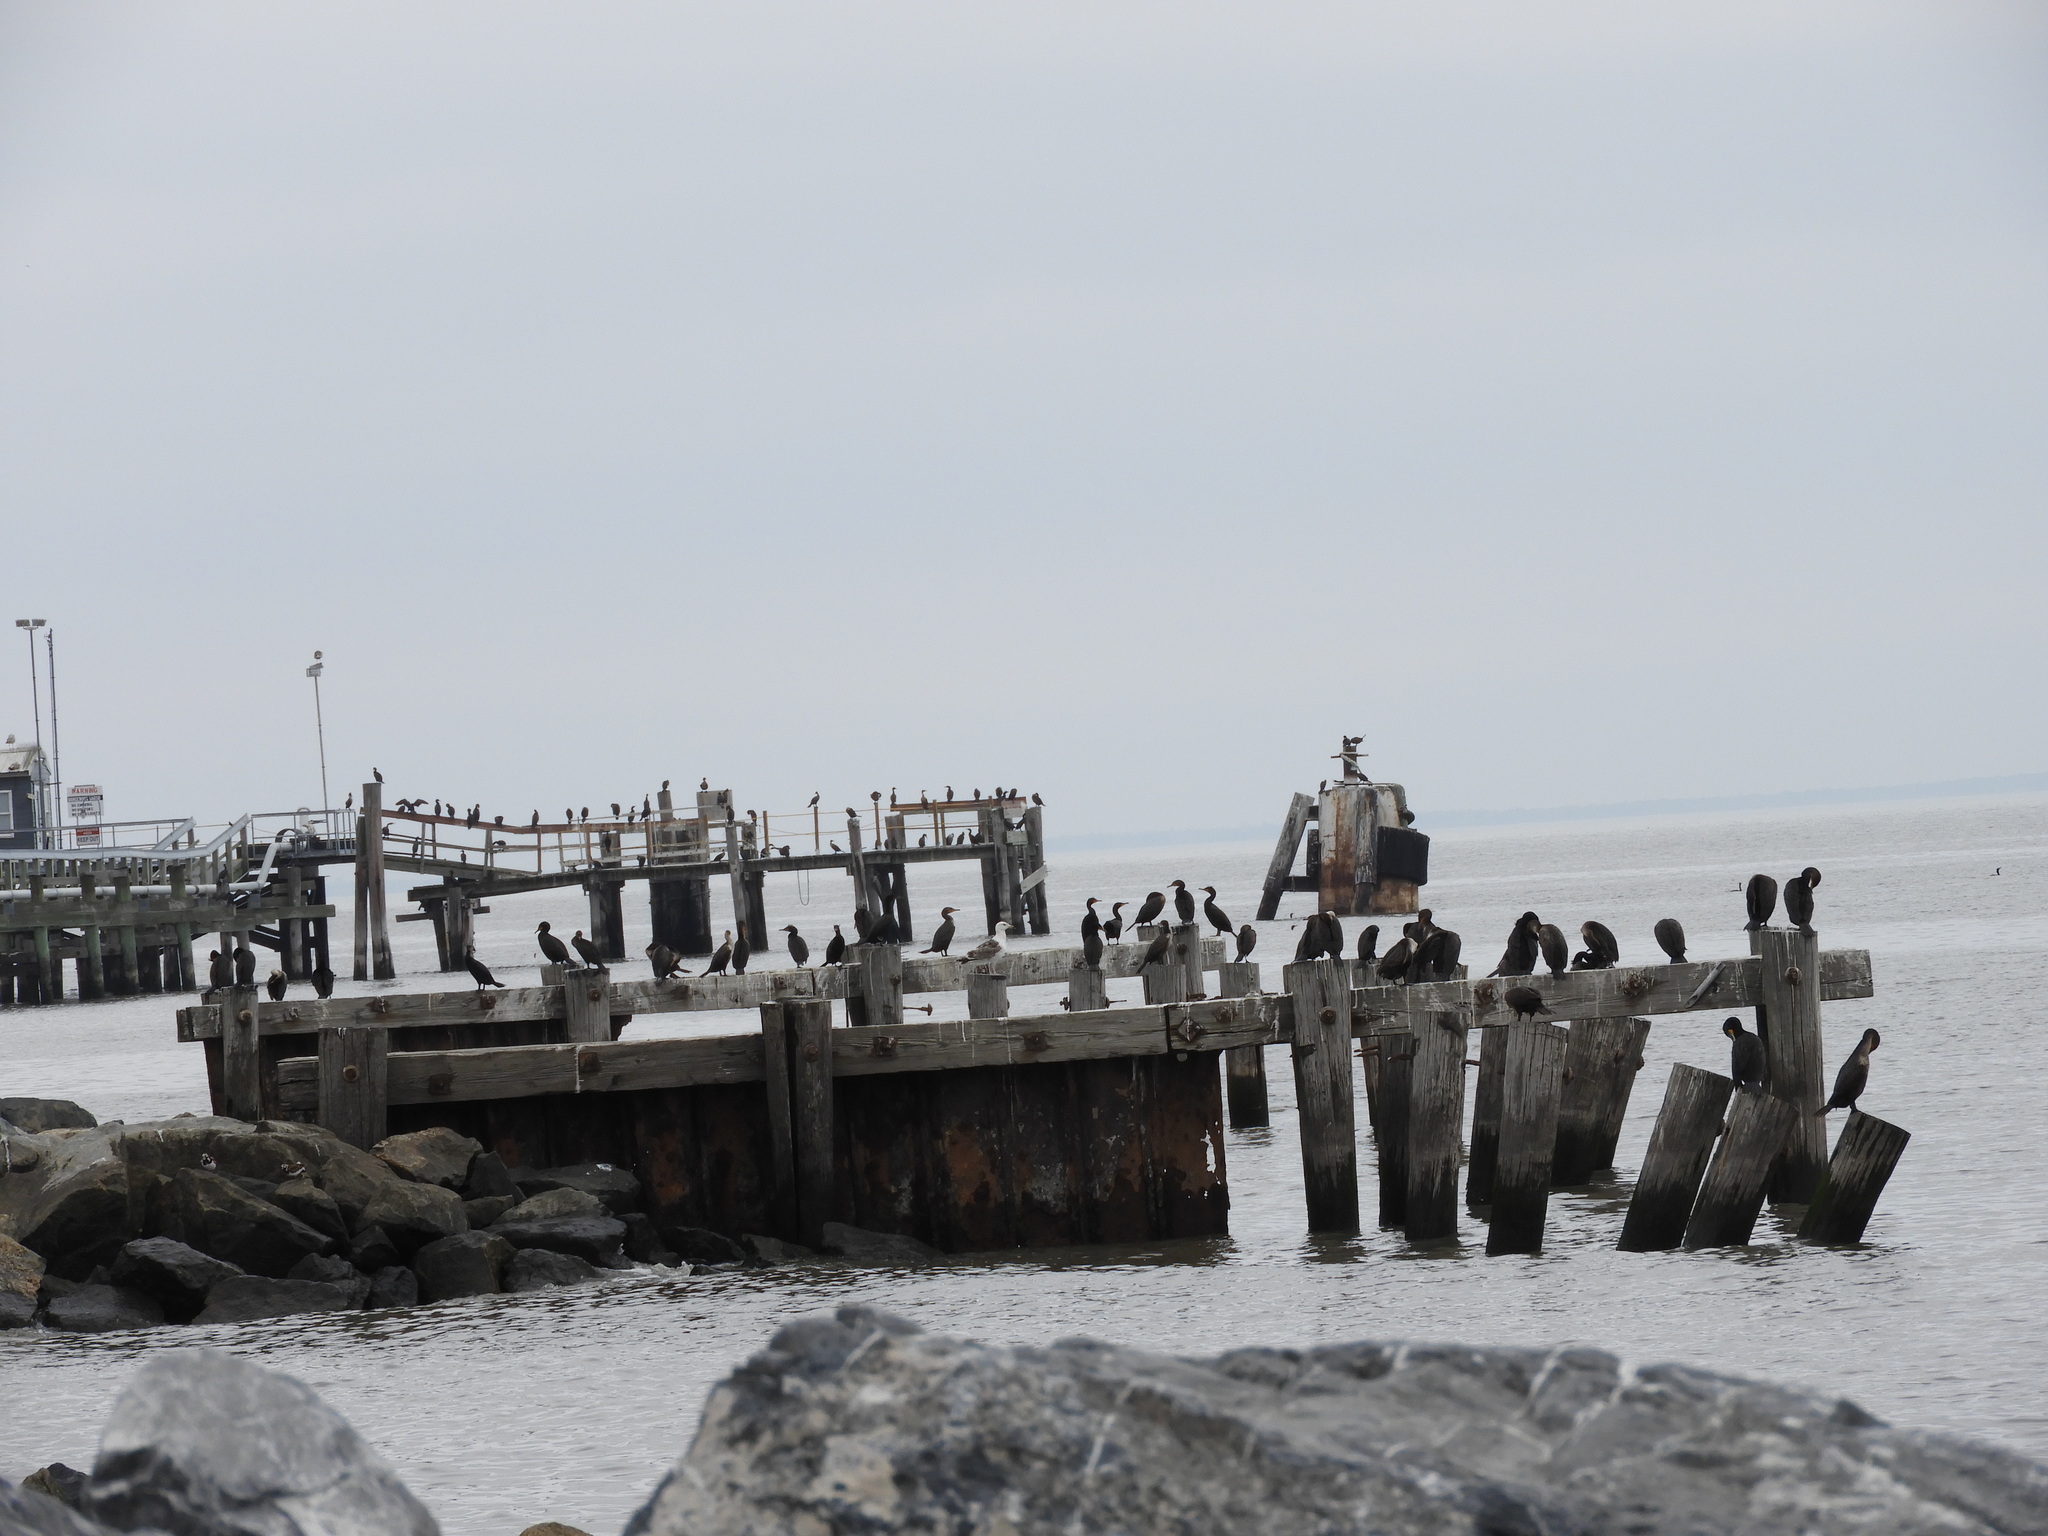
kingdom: Animalia
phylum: Chordata
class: Aves
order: Suliformes
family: Phalacrocoracidae
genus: Phalacrocorax
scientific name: Phalacrocorax auritus
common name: Double-crested cormorant
